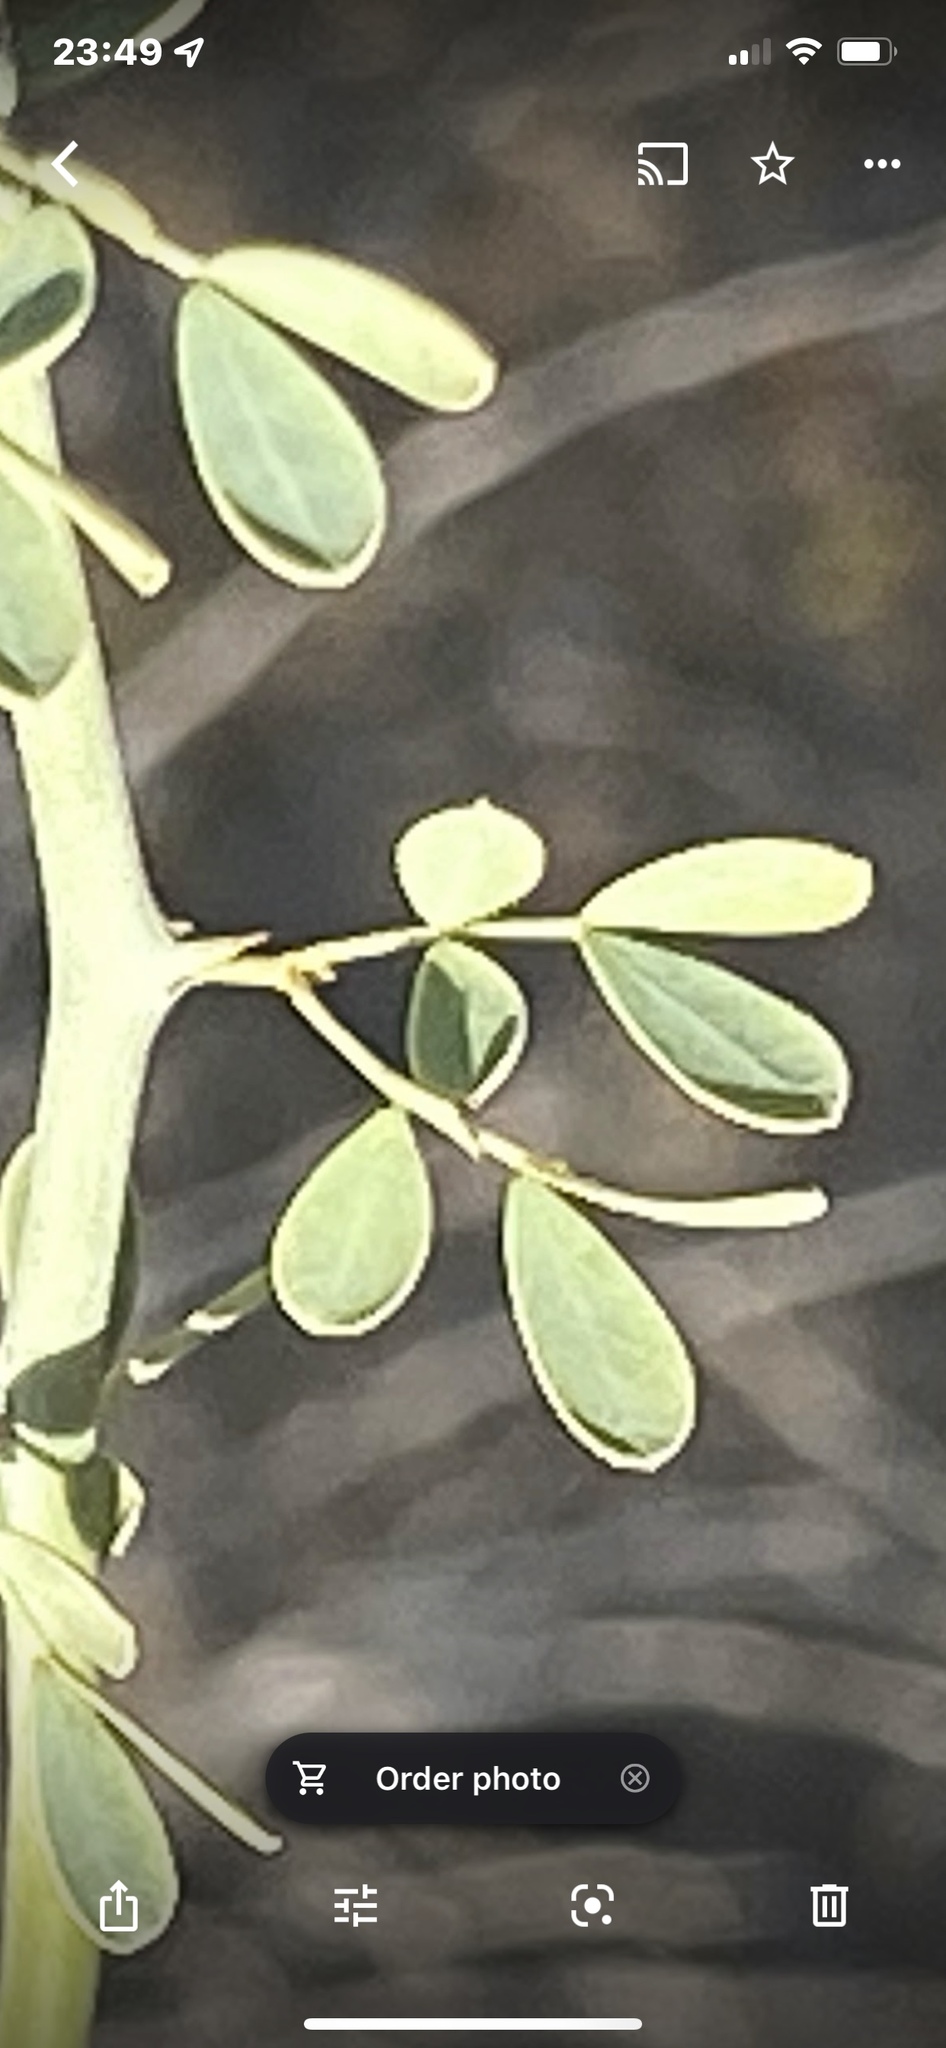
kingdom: Plantae
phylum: Tracheophyta
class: Magnoliopsida
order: Fabales
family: Fabaceae
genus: Parkinsonia
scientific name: Parkinsonia florida
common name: Blue paloverde
